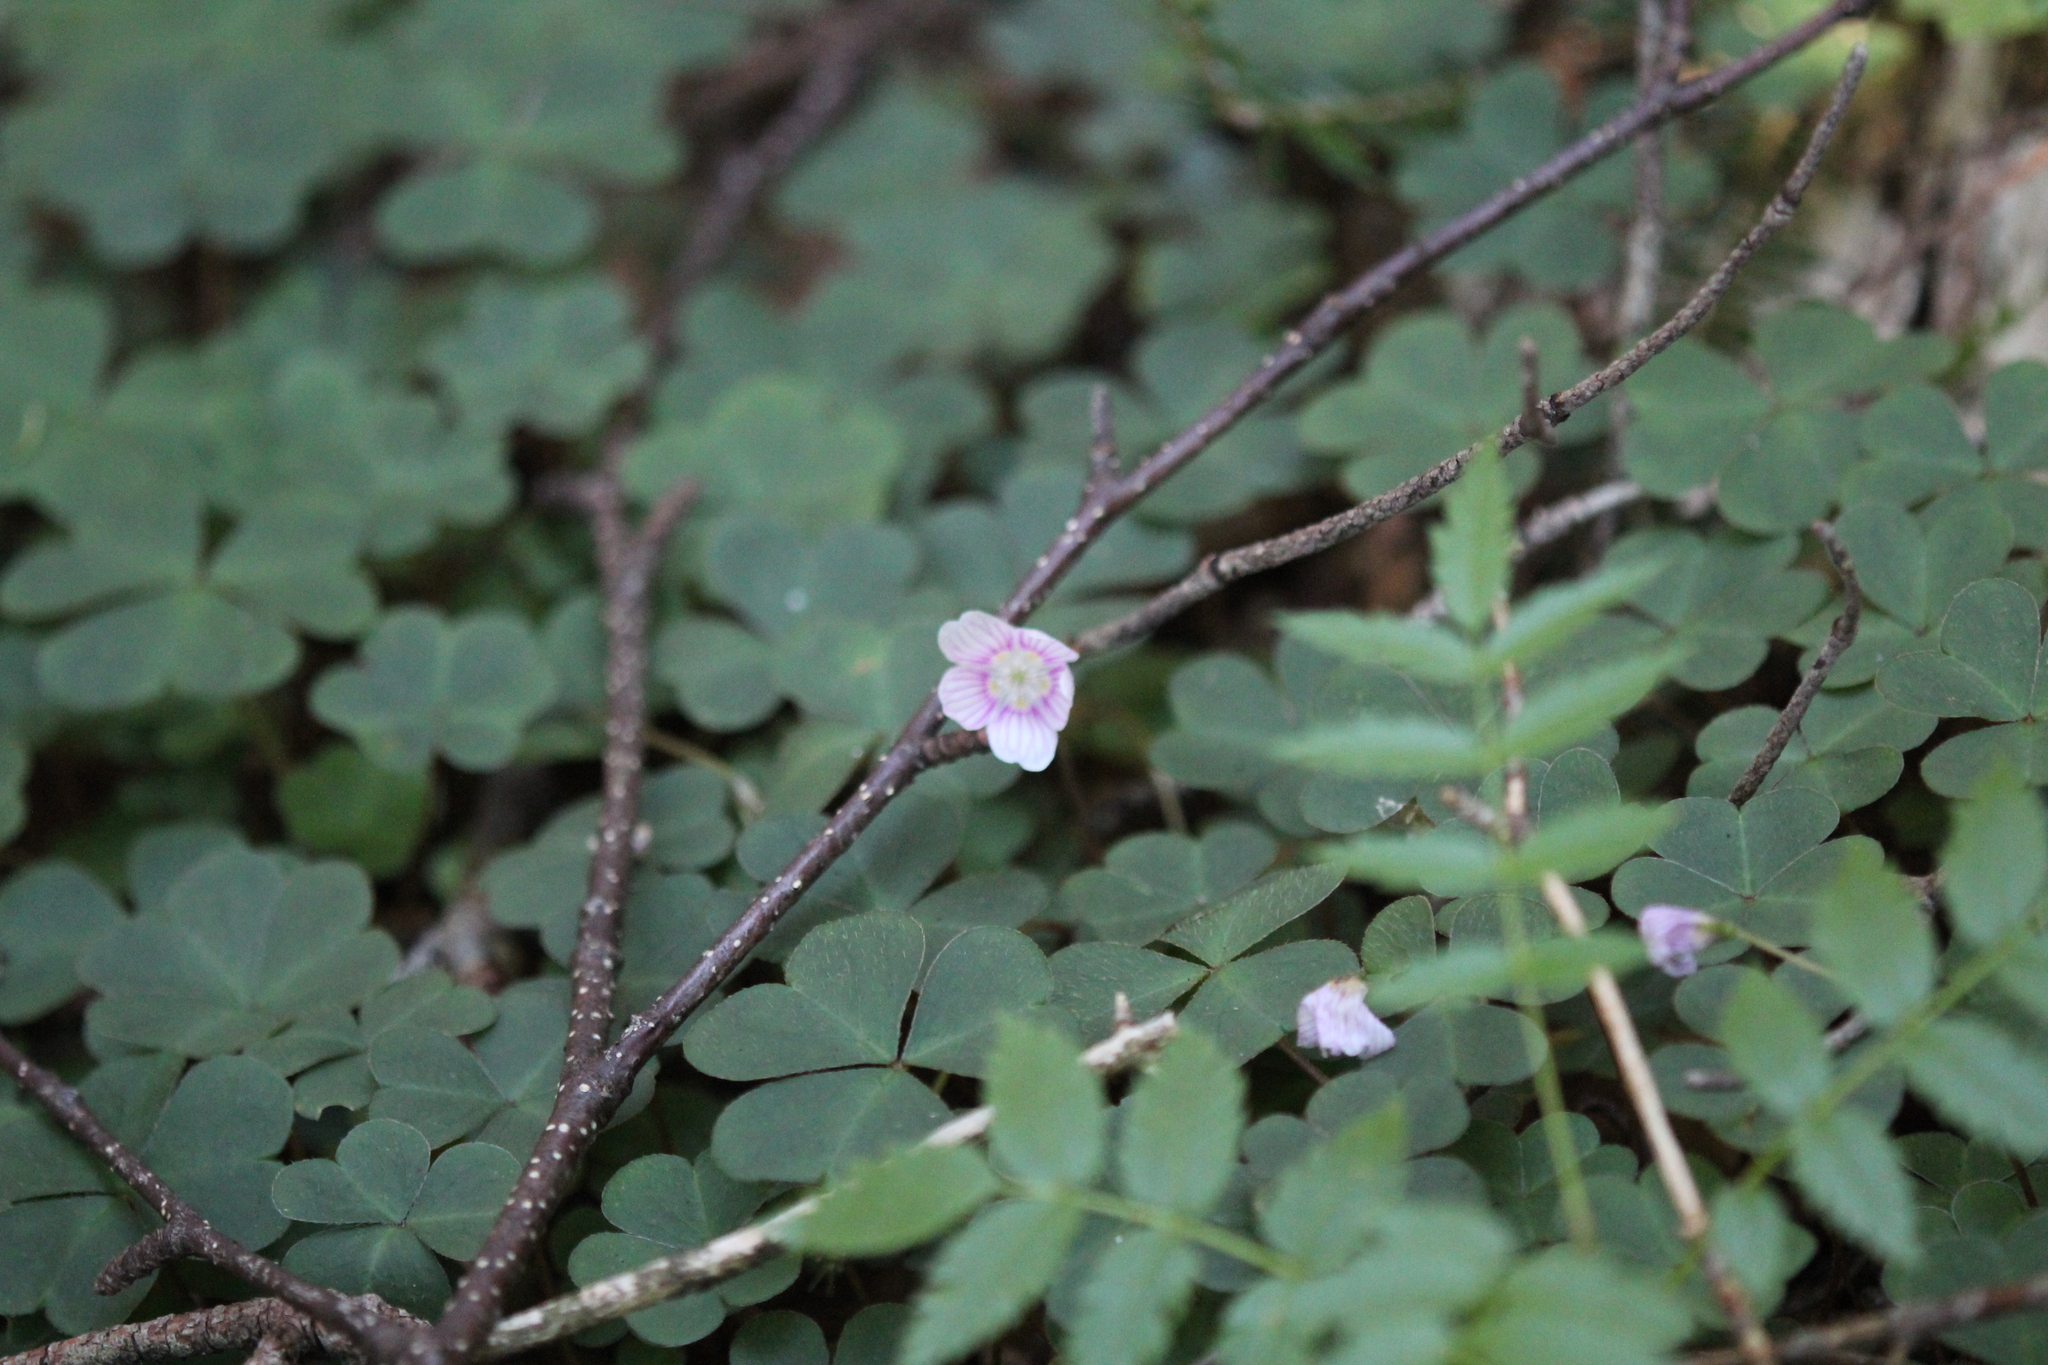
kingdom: Plantae
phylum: Tracheophyta
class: Magnoliopsida
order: Oxalidales
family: Oxalidaceae
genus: Oxalis
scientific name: Oxalis montana
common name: American wood-sorrel
